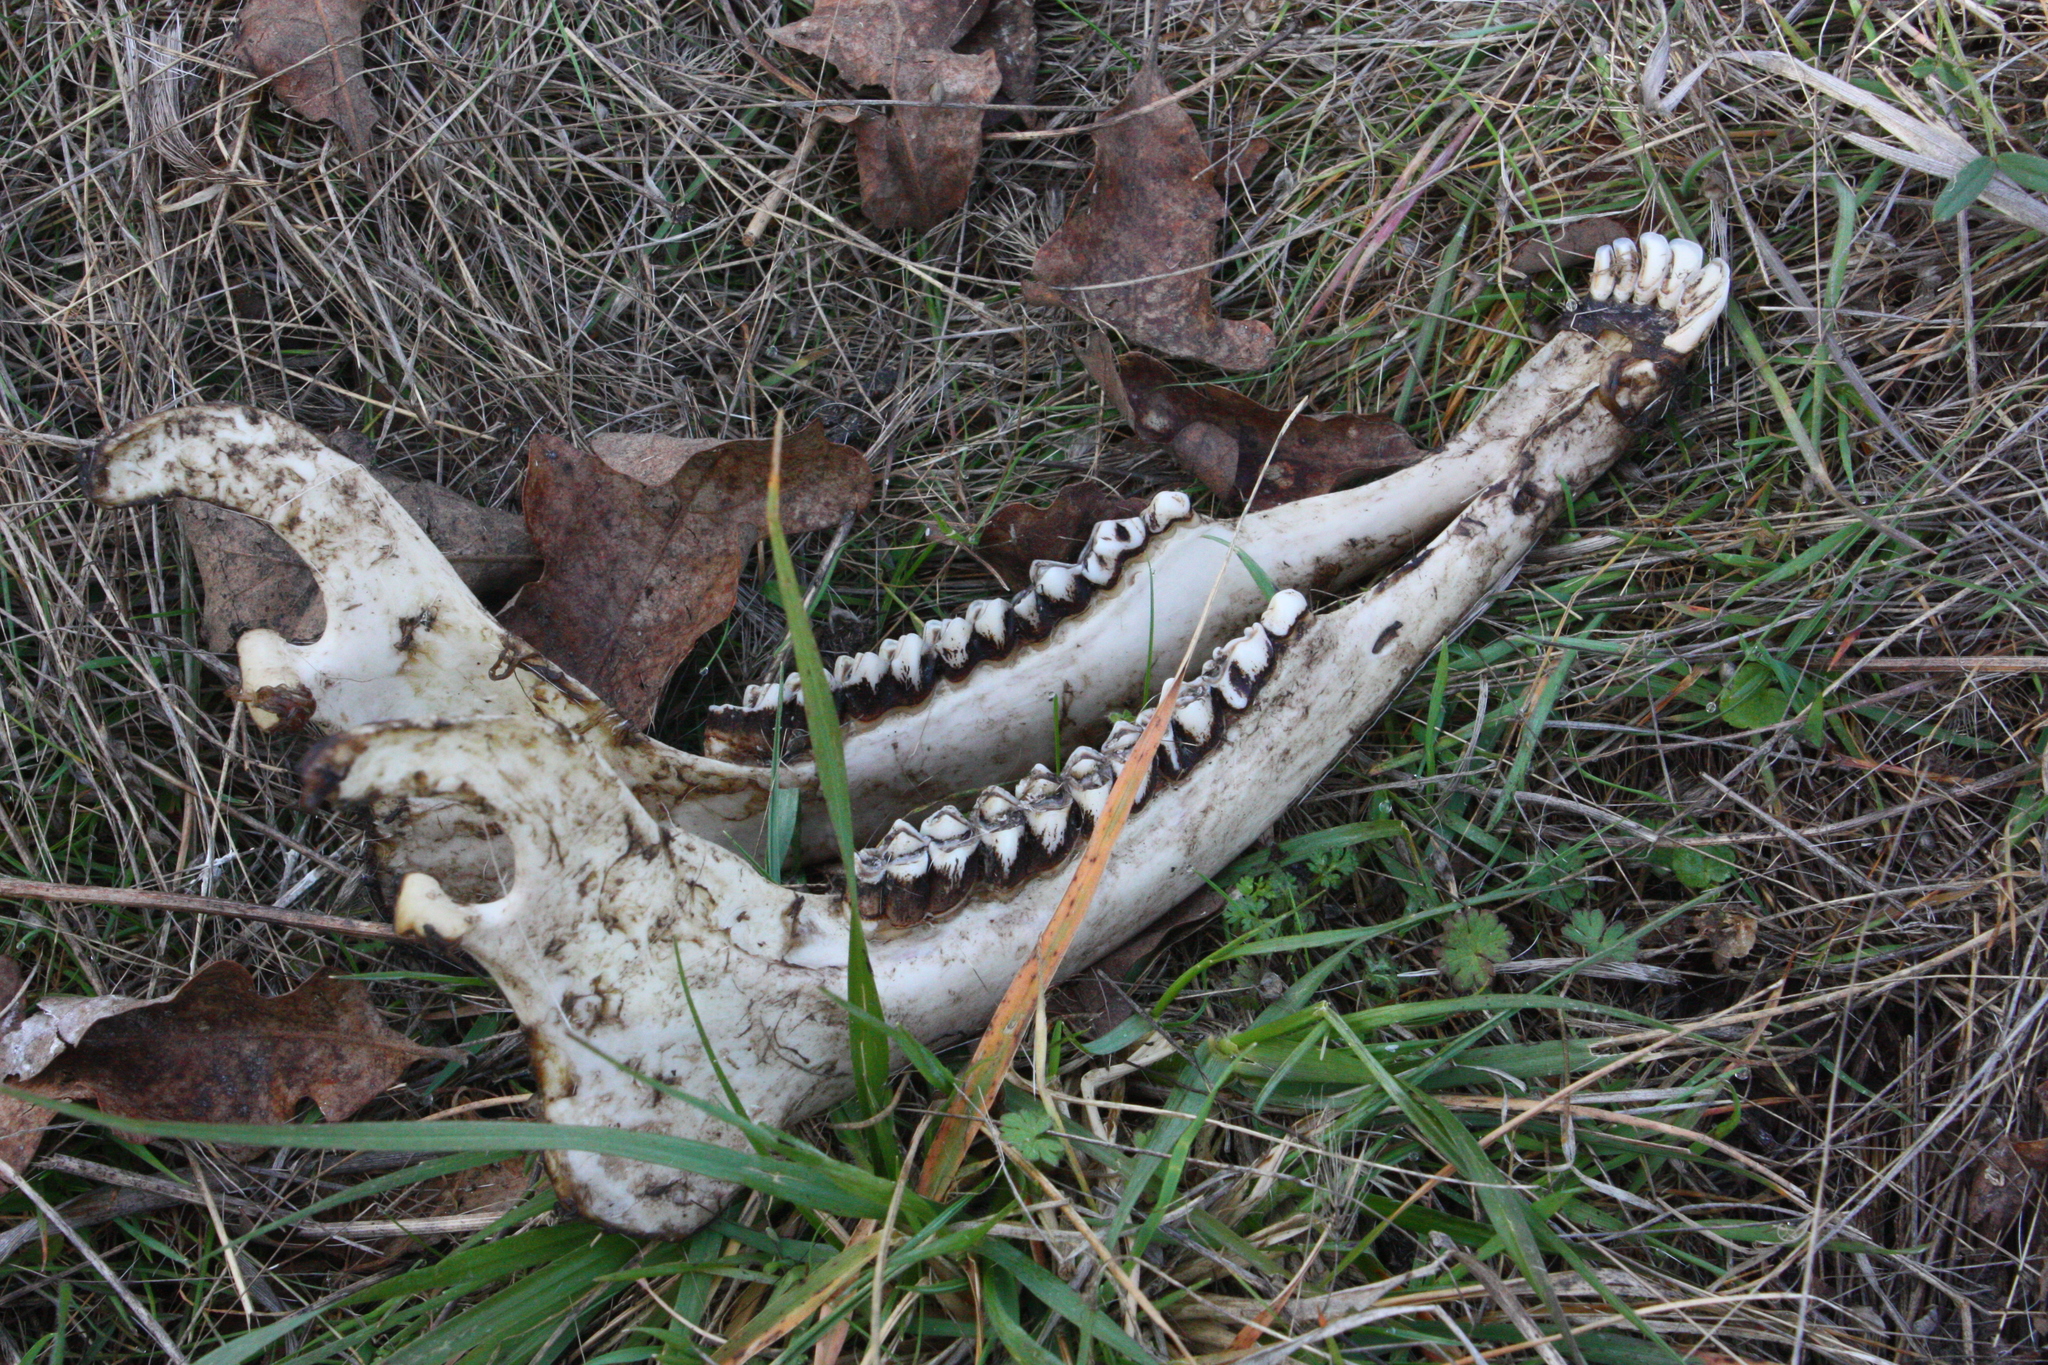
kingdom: Animalia
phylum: Chordata
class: Mammalia
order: Artiodactyla
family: Cervidae
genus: Odocoileus
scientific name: Odocoileus hemionus
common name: Mule deer
